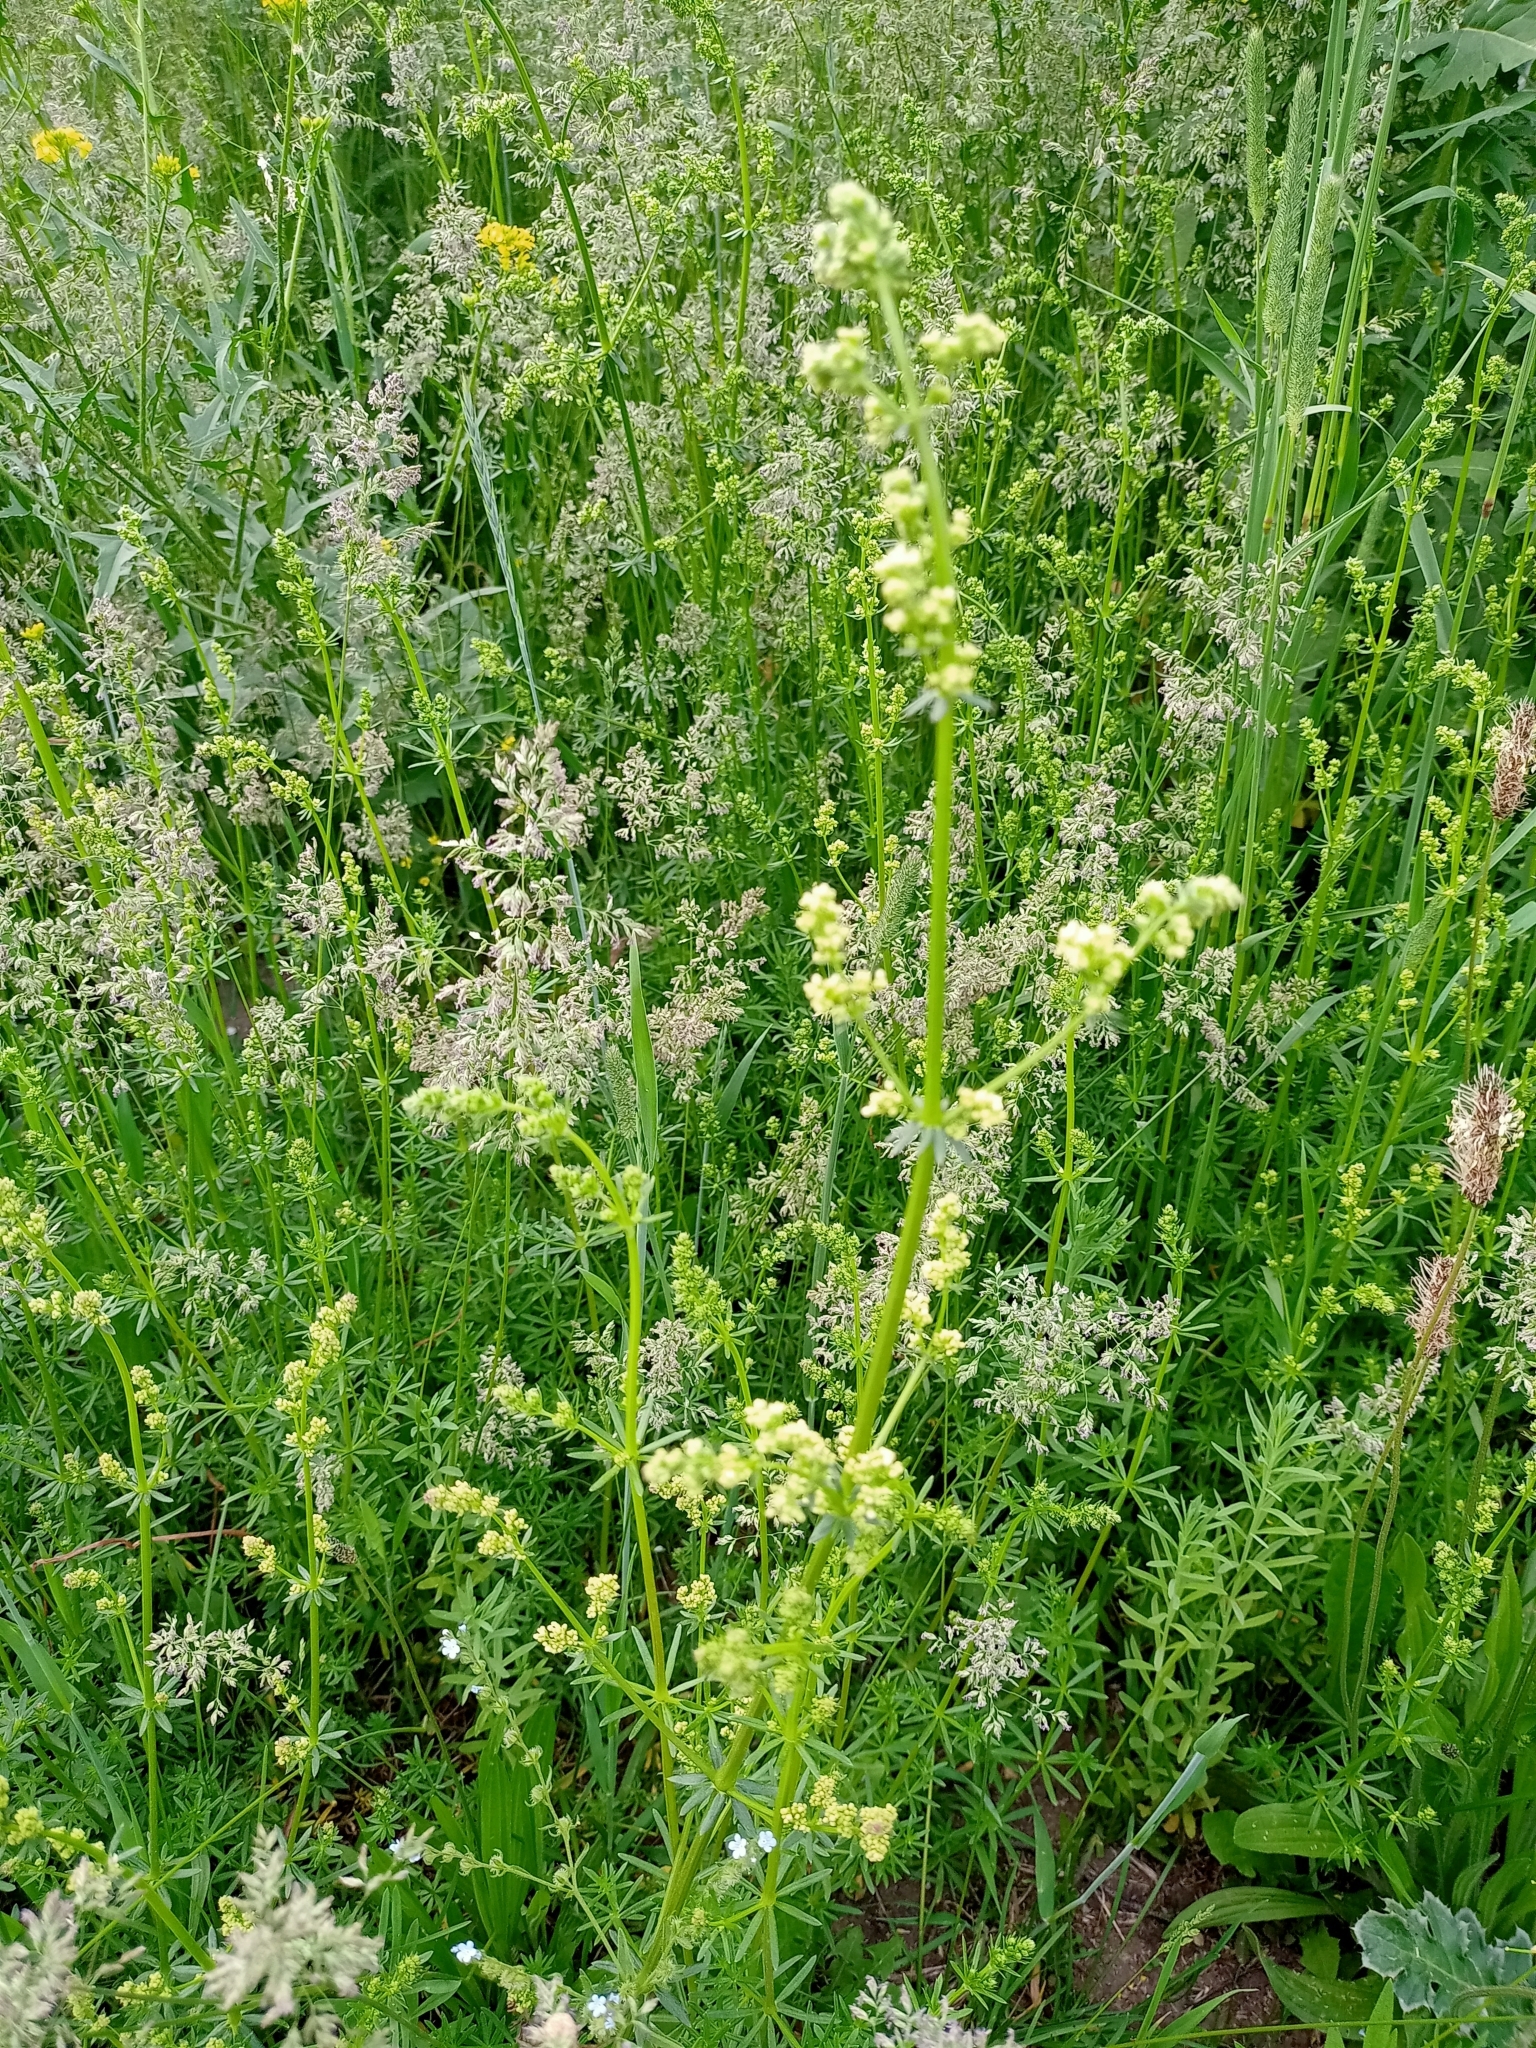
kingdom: Plantae
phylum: Tracheophyta
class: Magnoliopsida
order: Gentianales
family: Rubiaceae
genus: Galium
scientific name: Galium mollugo
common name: Hedge bedstraw
